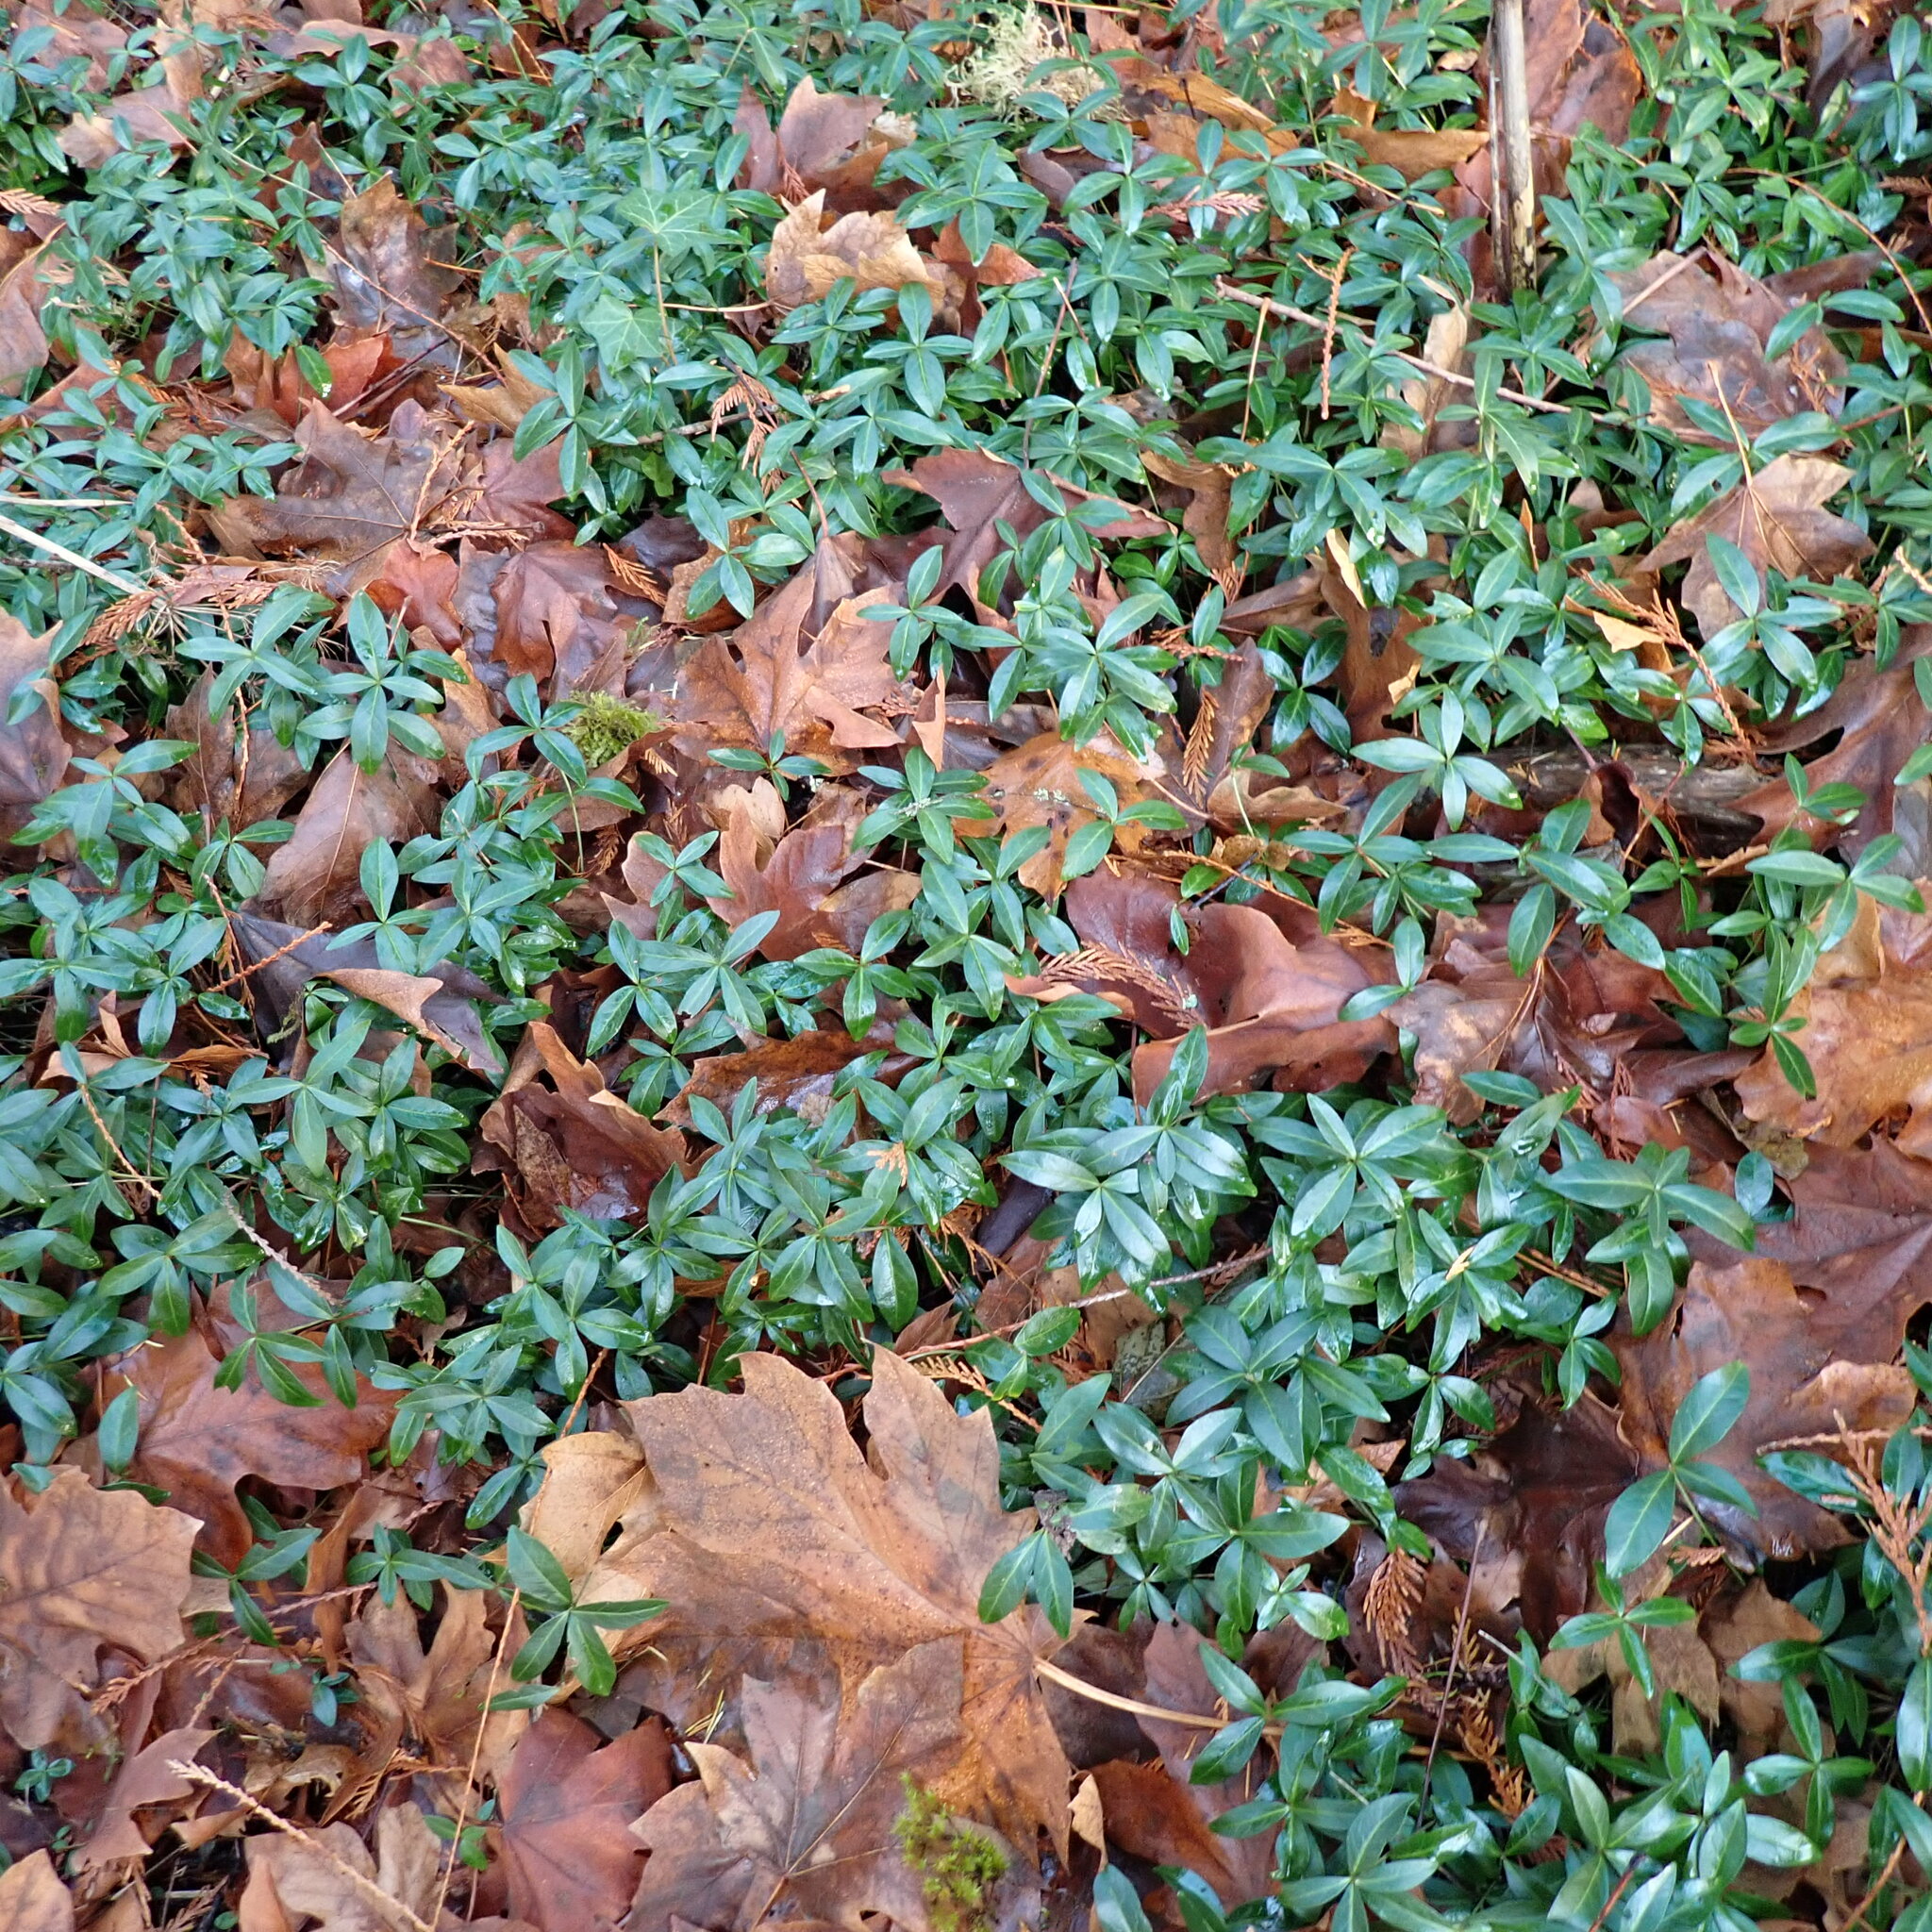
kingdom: Plantae
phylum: Tracheophyta
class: Magnoliopsida
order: Gentianales
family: Apocynaceae
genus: Vinca
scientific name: Vinca minor
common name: Lesser periwinkle
